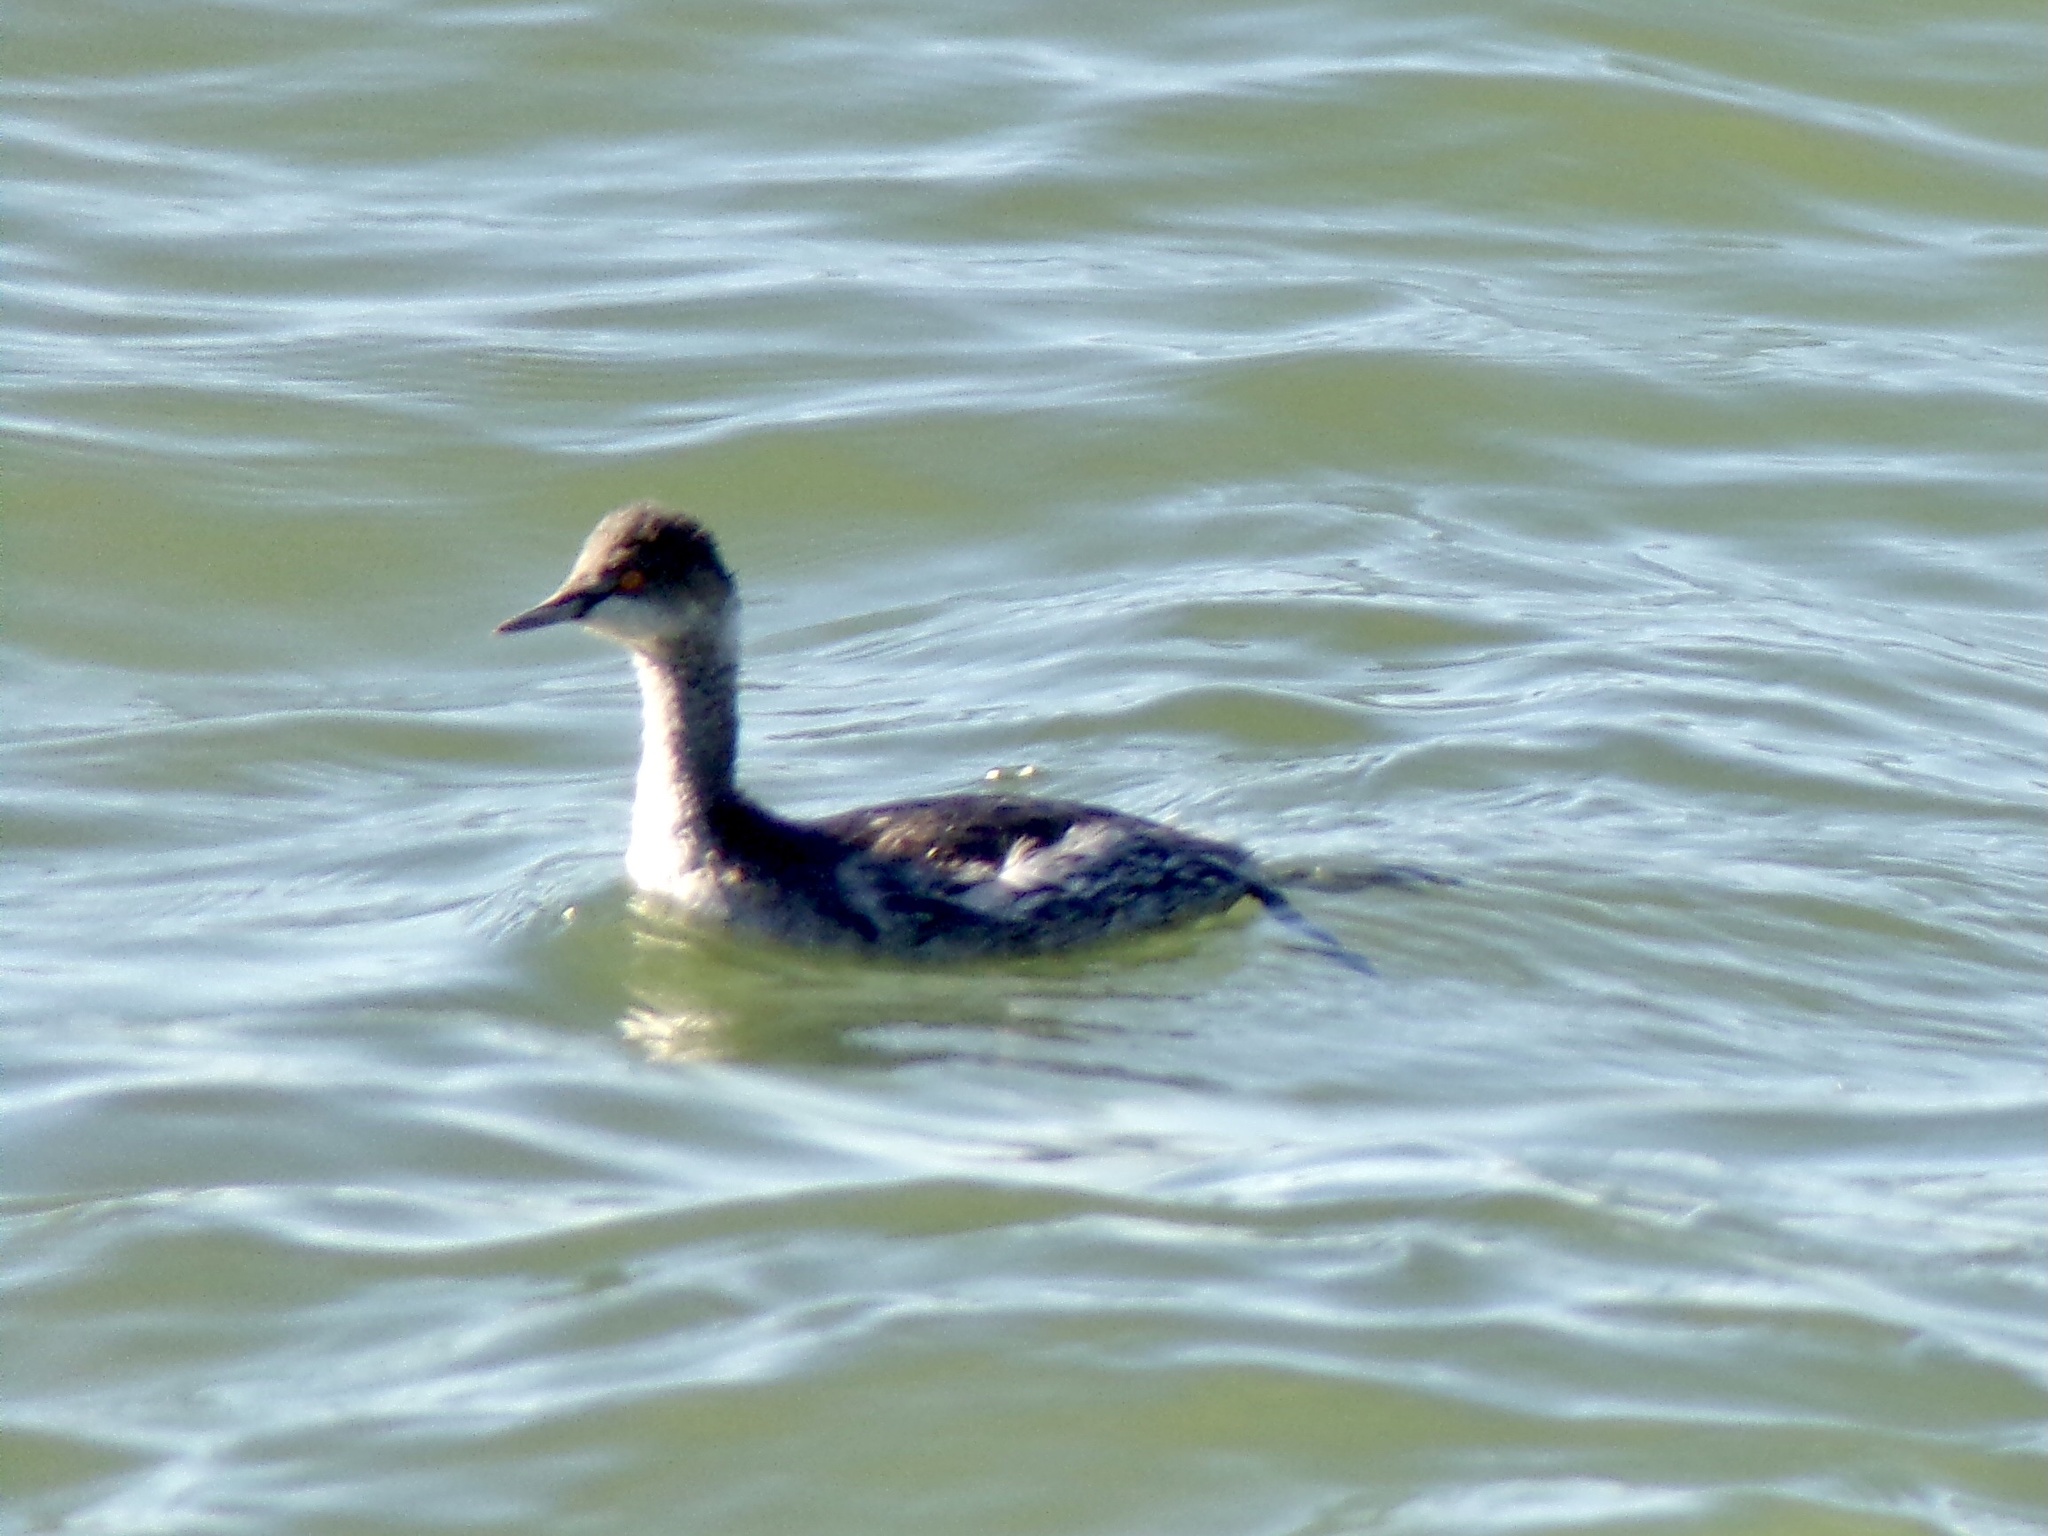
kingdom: Animalia
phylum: Chordata
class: Aves
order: Podicipediformes
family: Podicipedidae
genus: Podiceps
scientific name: Podiceps nigricollis
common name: Black-necked grebe
